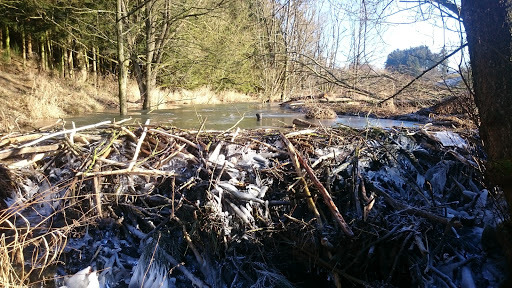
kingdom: Animalia
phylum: Chordata
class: Mammalia
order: Rodentia
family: Castoridae
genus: Castor
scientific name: Castor fiber
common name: Eurasian beaver
